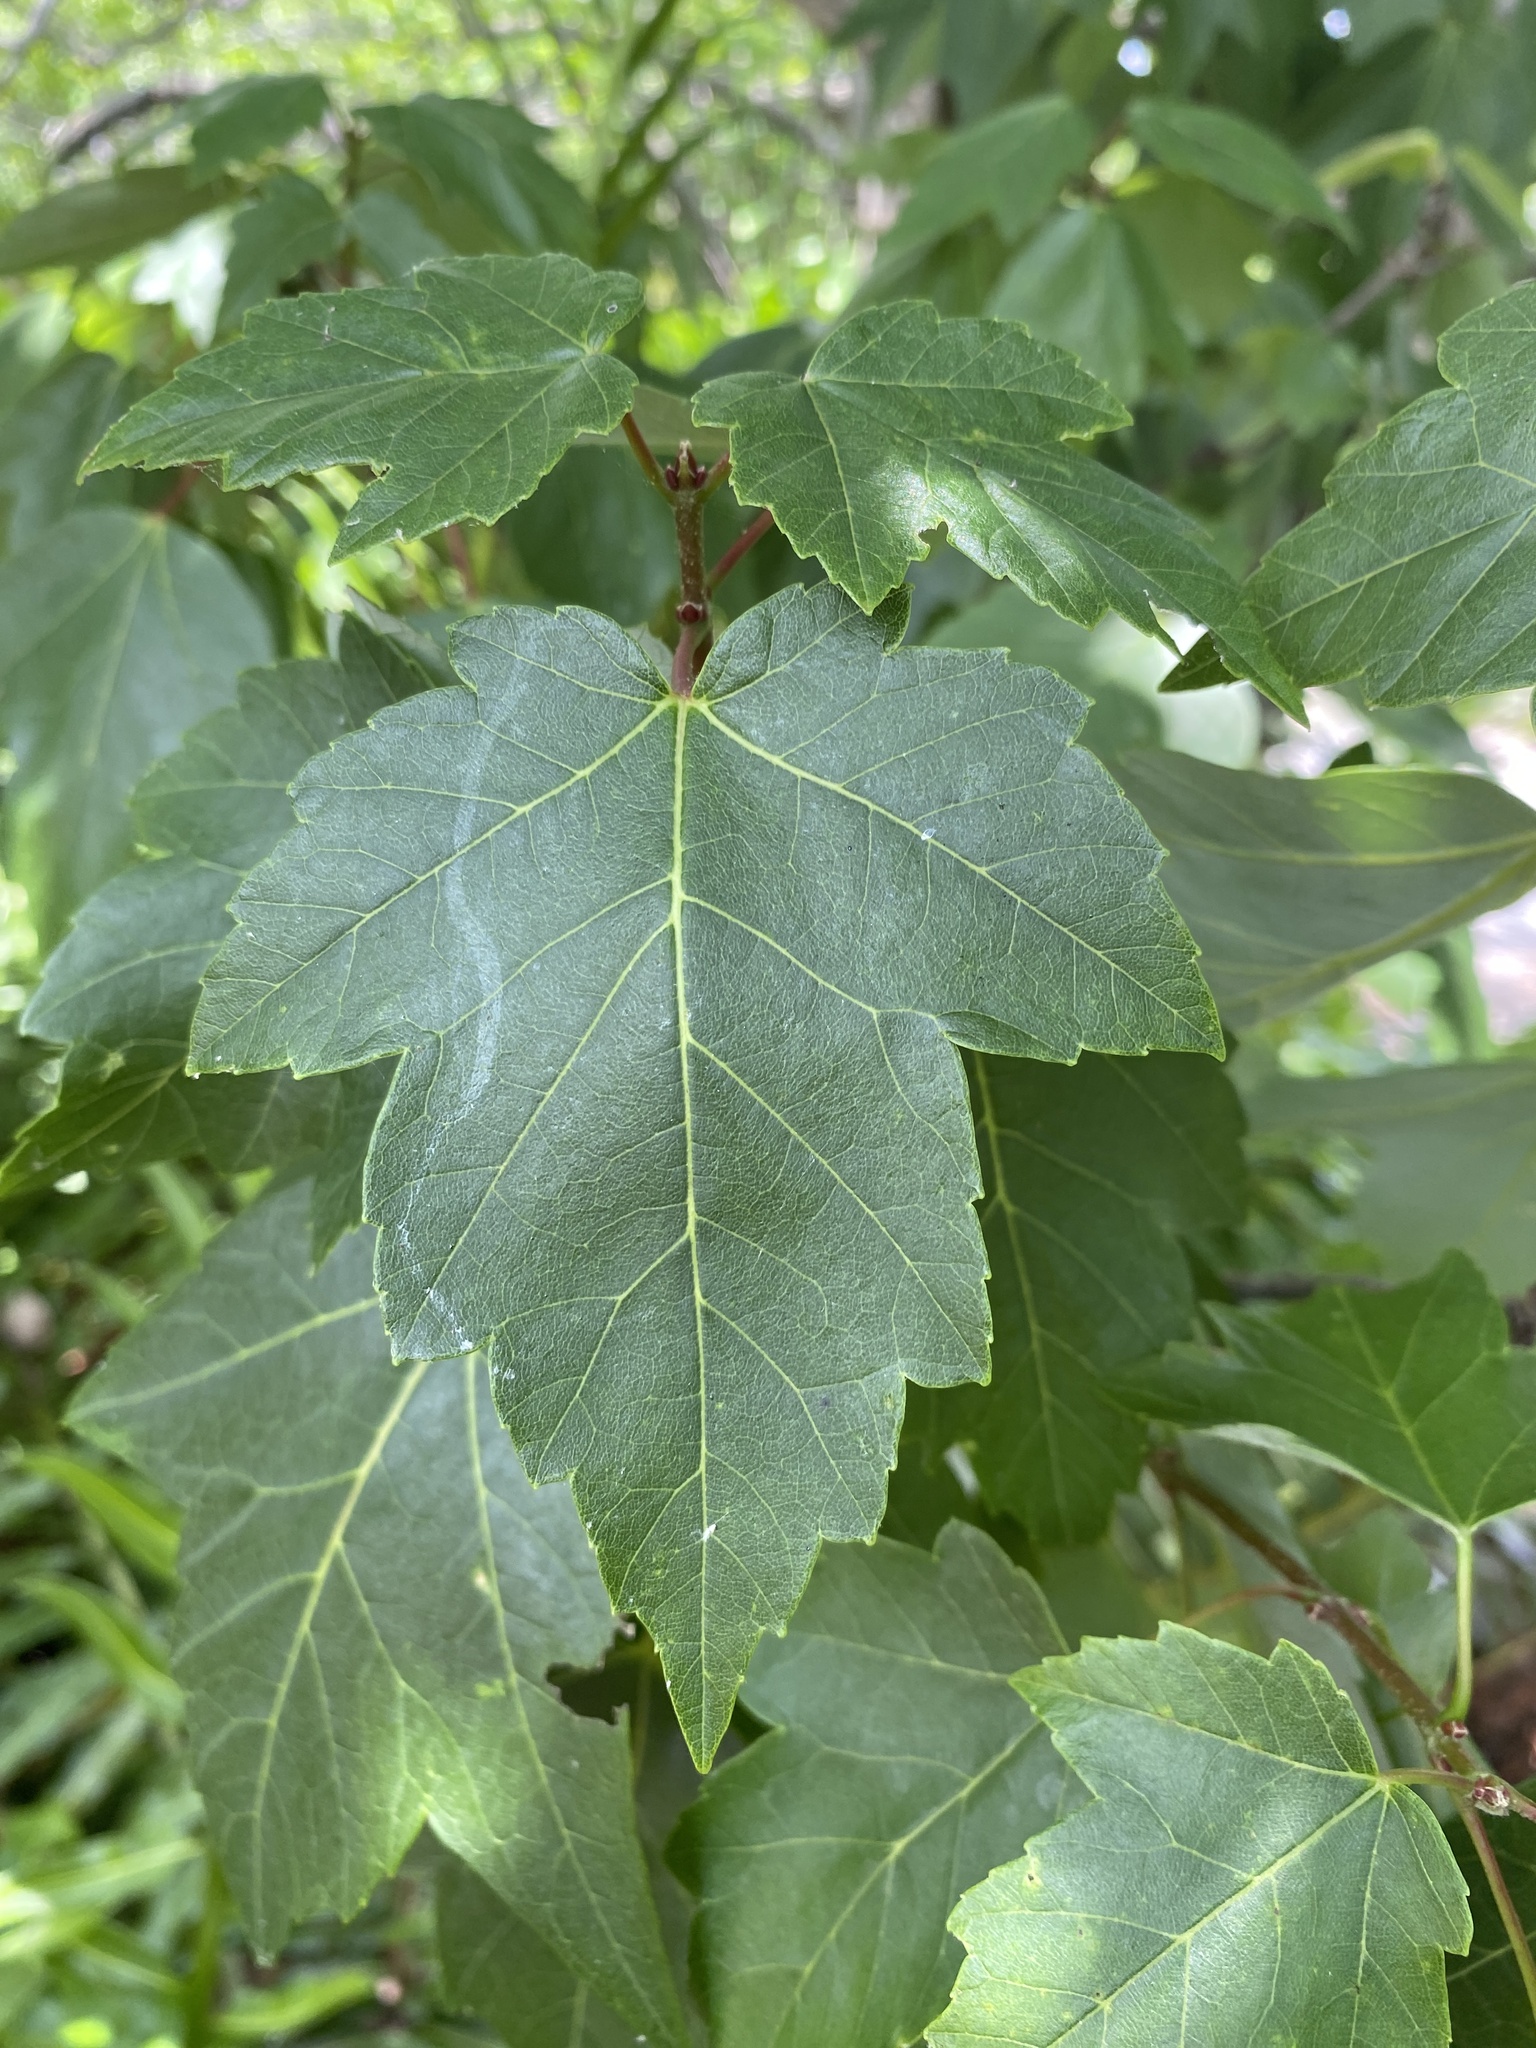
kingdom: Plantae
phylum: Tracheophyta
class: Magnoliopsida
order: Sapindales
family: Sapindaceae
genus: Acer
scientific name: Acer rubrum
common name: Red maple
